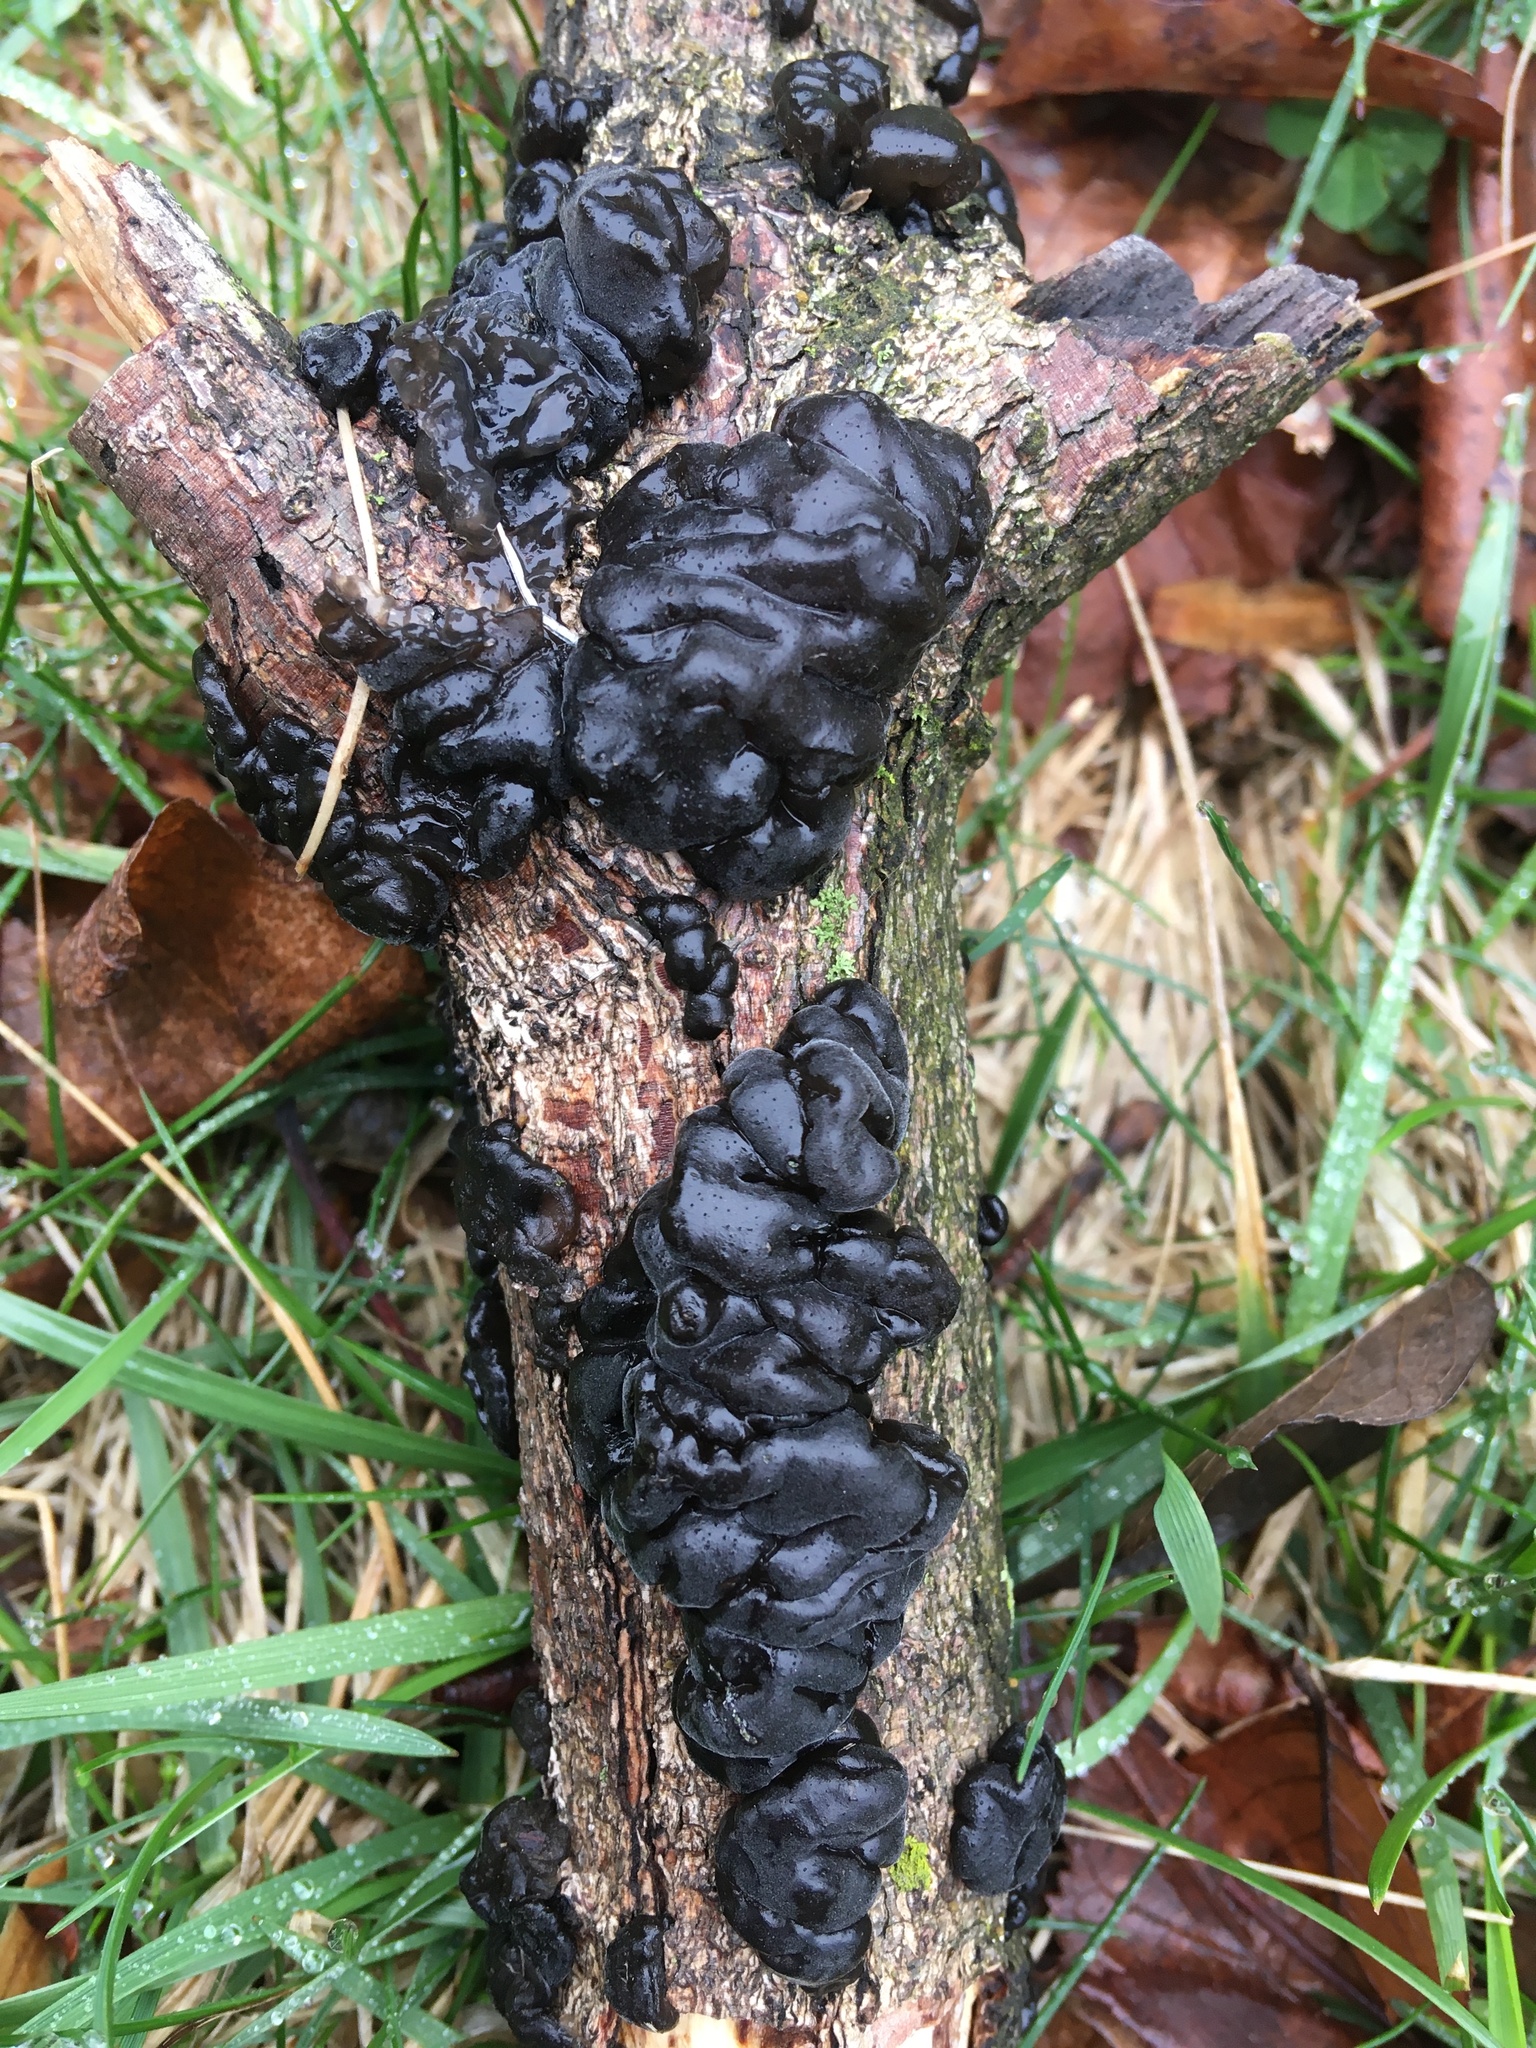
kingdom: Fungi
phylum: Basidiomycota
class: Agaricomycetes
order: Auriculariales
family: Auriculariaceae
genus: Exidia
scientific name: Exidia nigricans
